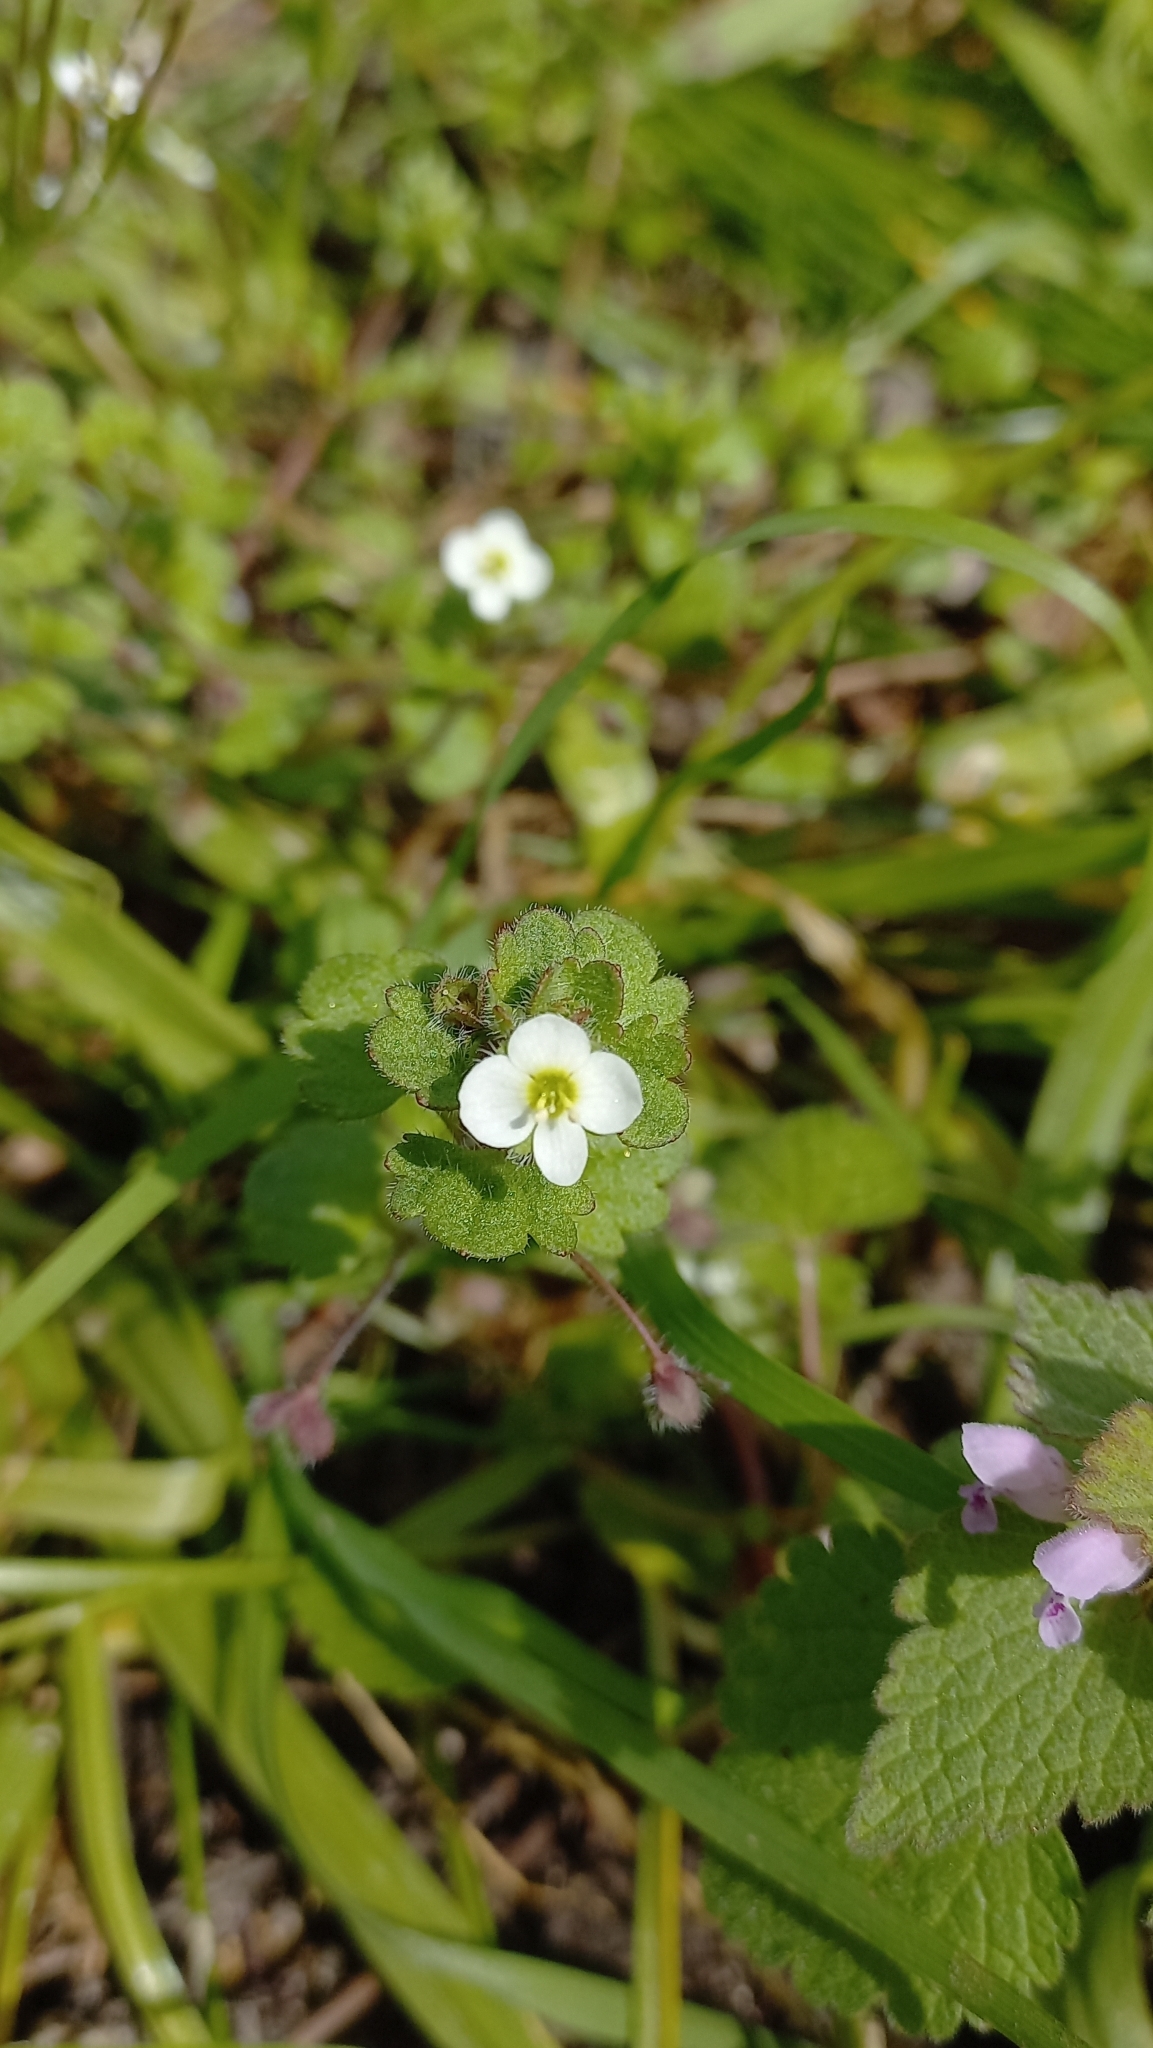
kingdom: Plantae
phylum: Tracheophyta
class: Magnoliopsida
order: Lamiales
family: Plantaginaceae
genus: Veronica
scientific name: Veronica cymbalaria
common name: Pale speedwell
